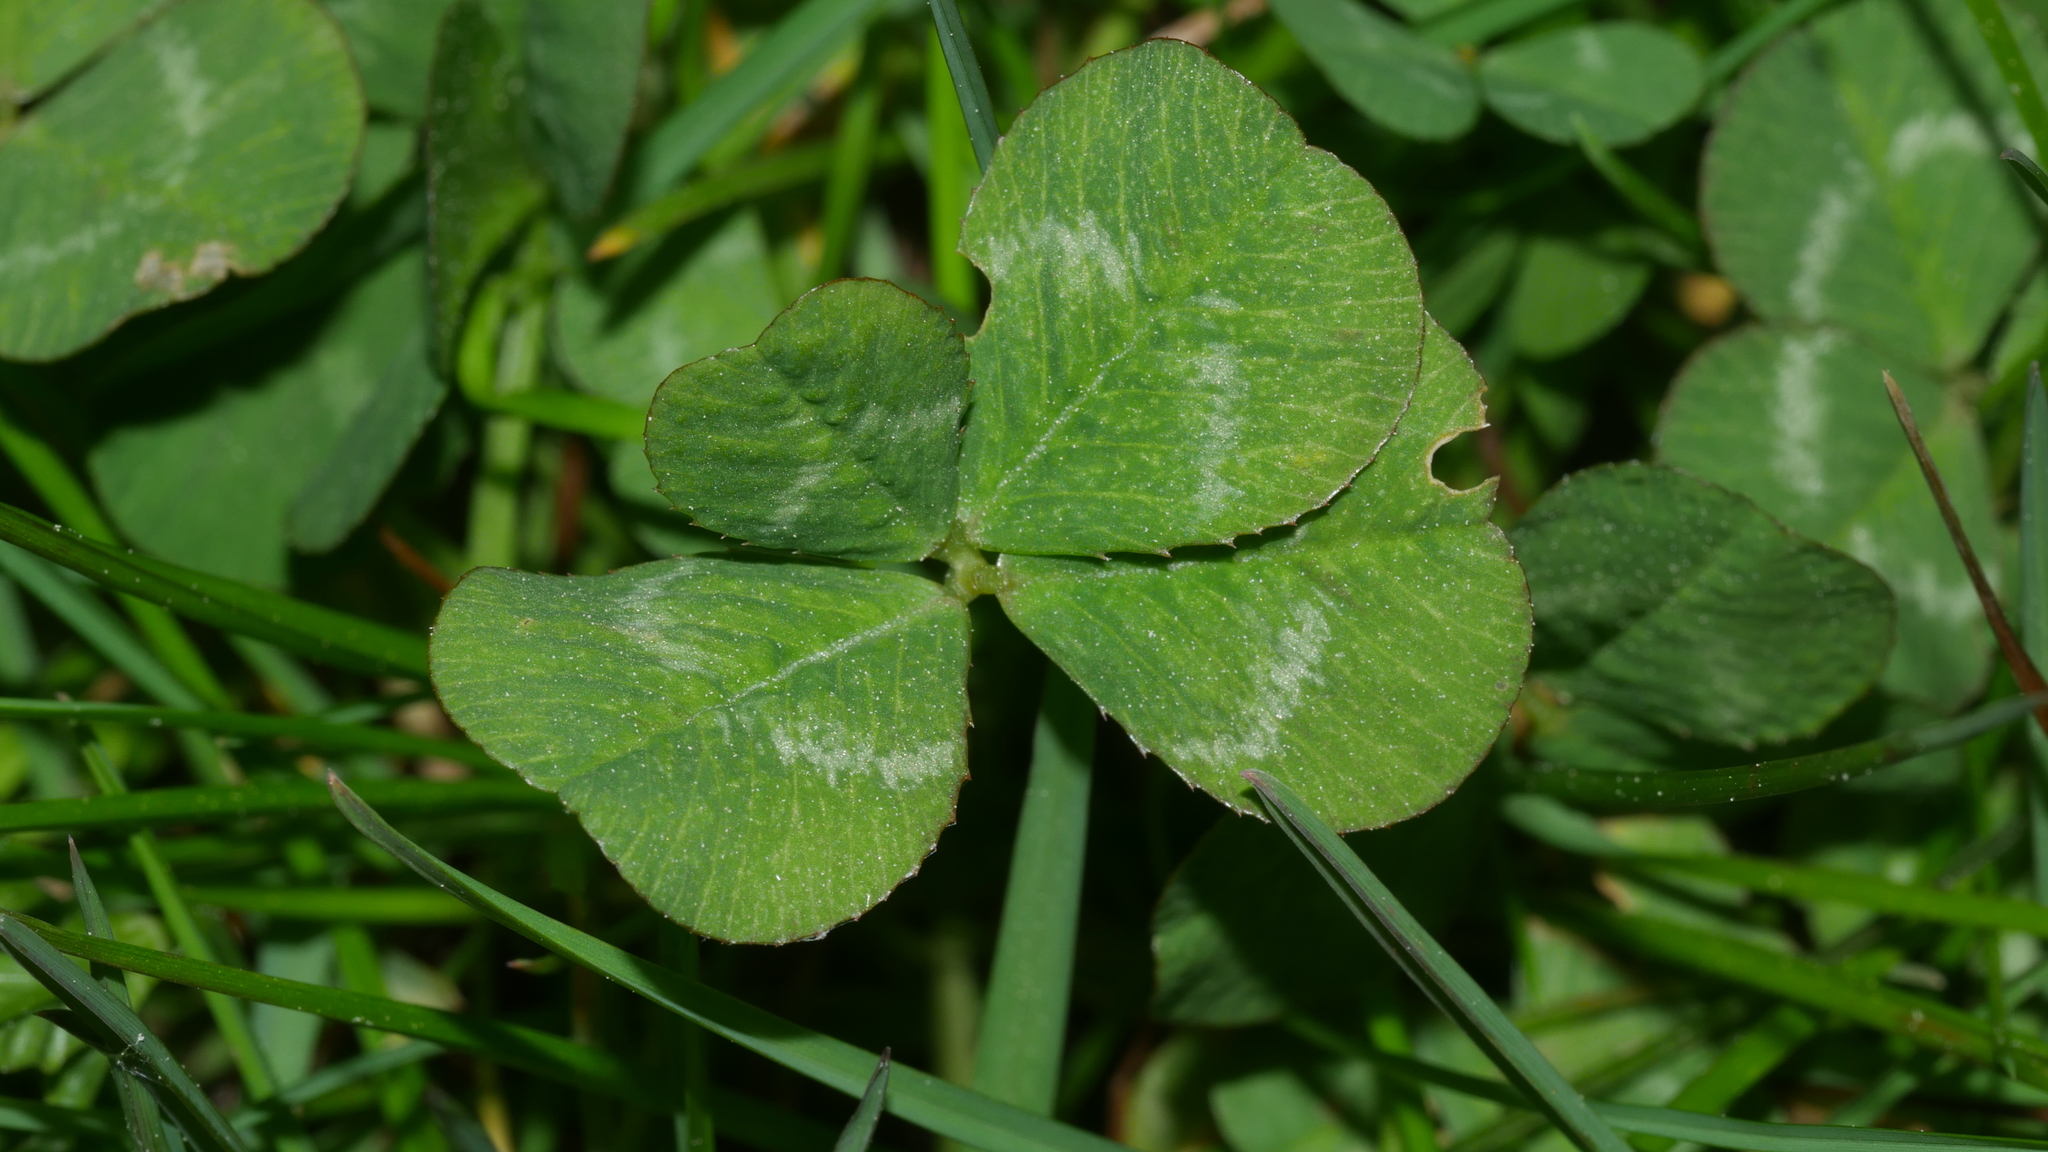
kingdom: Plantae
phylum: Tracheophyta
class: Magnoliopsida
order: Fabales
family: Fabaceae
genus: Trifolium
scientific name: Trifolium repens
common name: White clover
